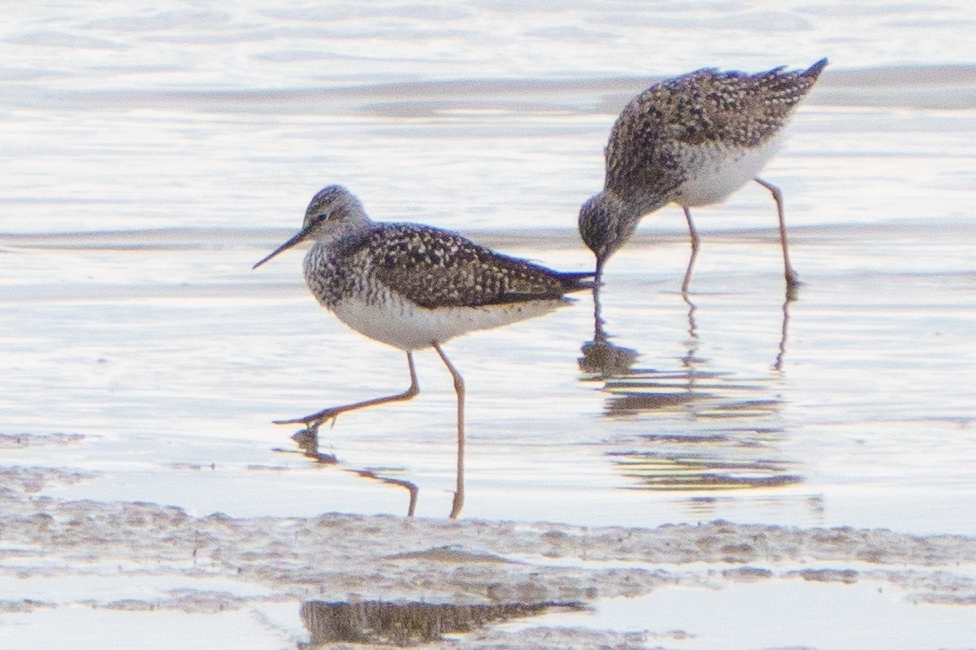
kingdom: Animalia
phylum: Chordata
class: Aves
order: Charadriiformes
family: Scolopacidae
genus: Tringa
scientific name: Tringa flavipes
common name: Lesser yellowlegs
